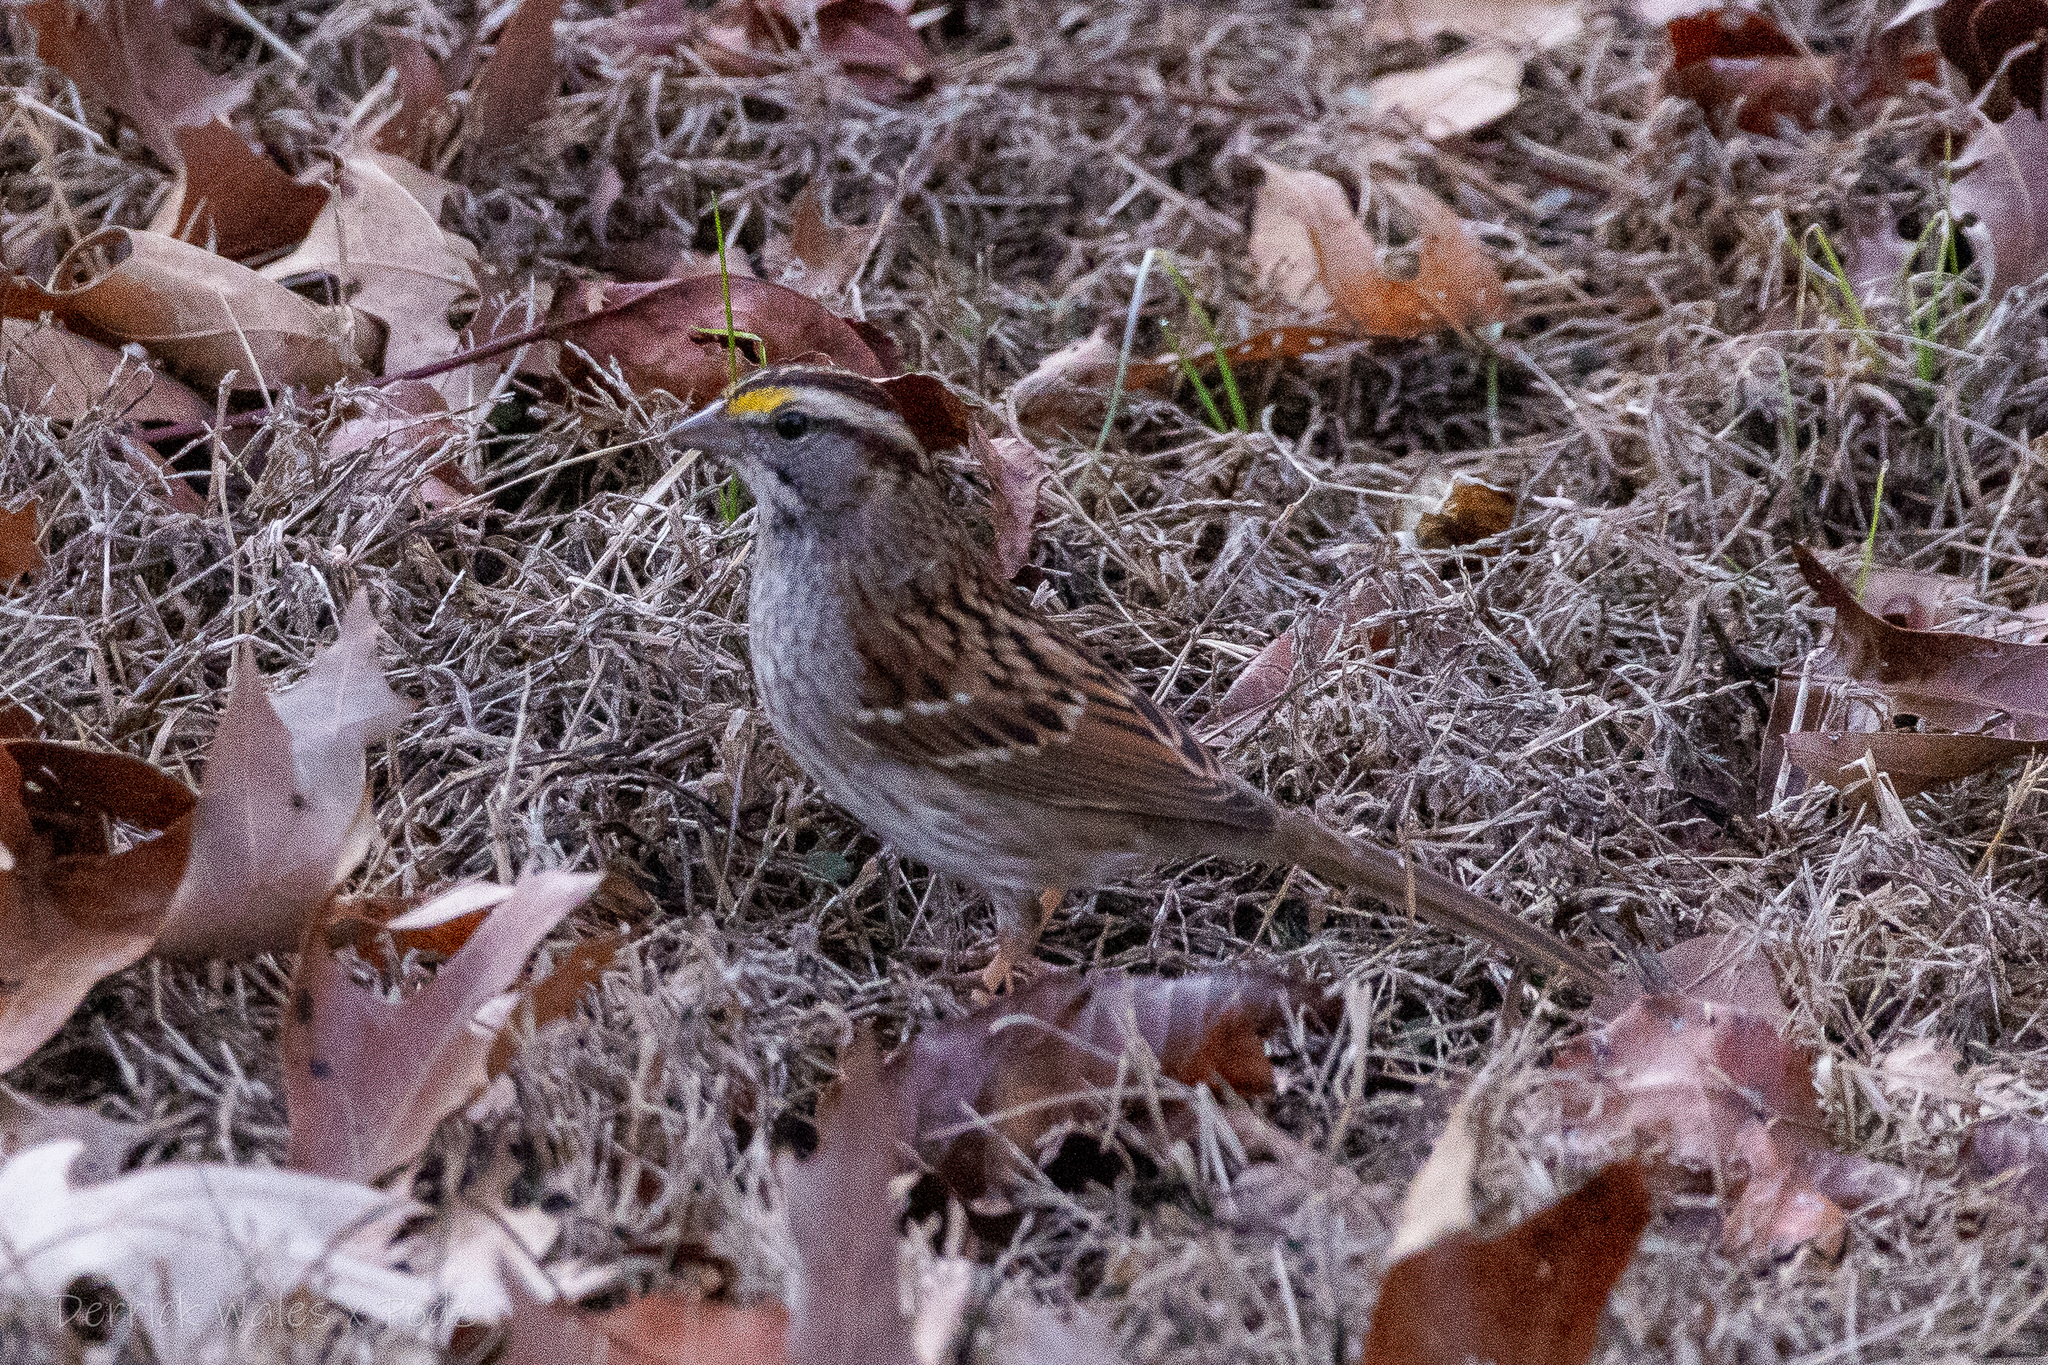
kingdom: Animalia
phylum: Chordata
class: Aves
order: Passeriformes
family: Passerellidae
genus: Zonotrichia
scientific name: Zonotrichia albicollis
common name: White-throated sparrow
